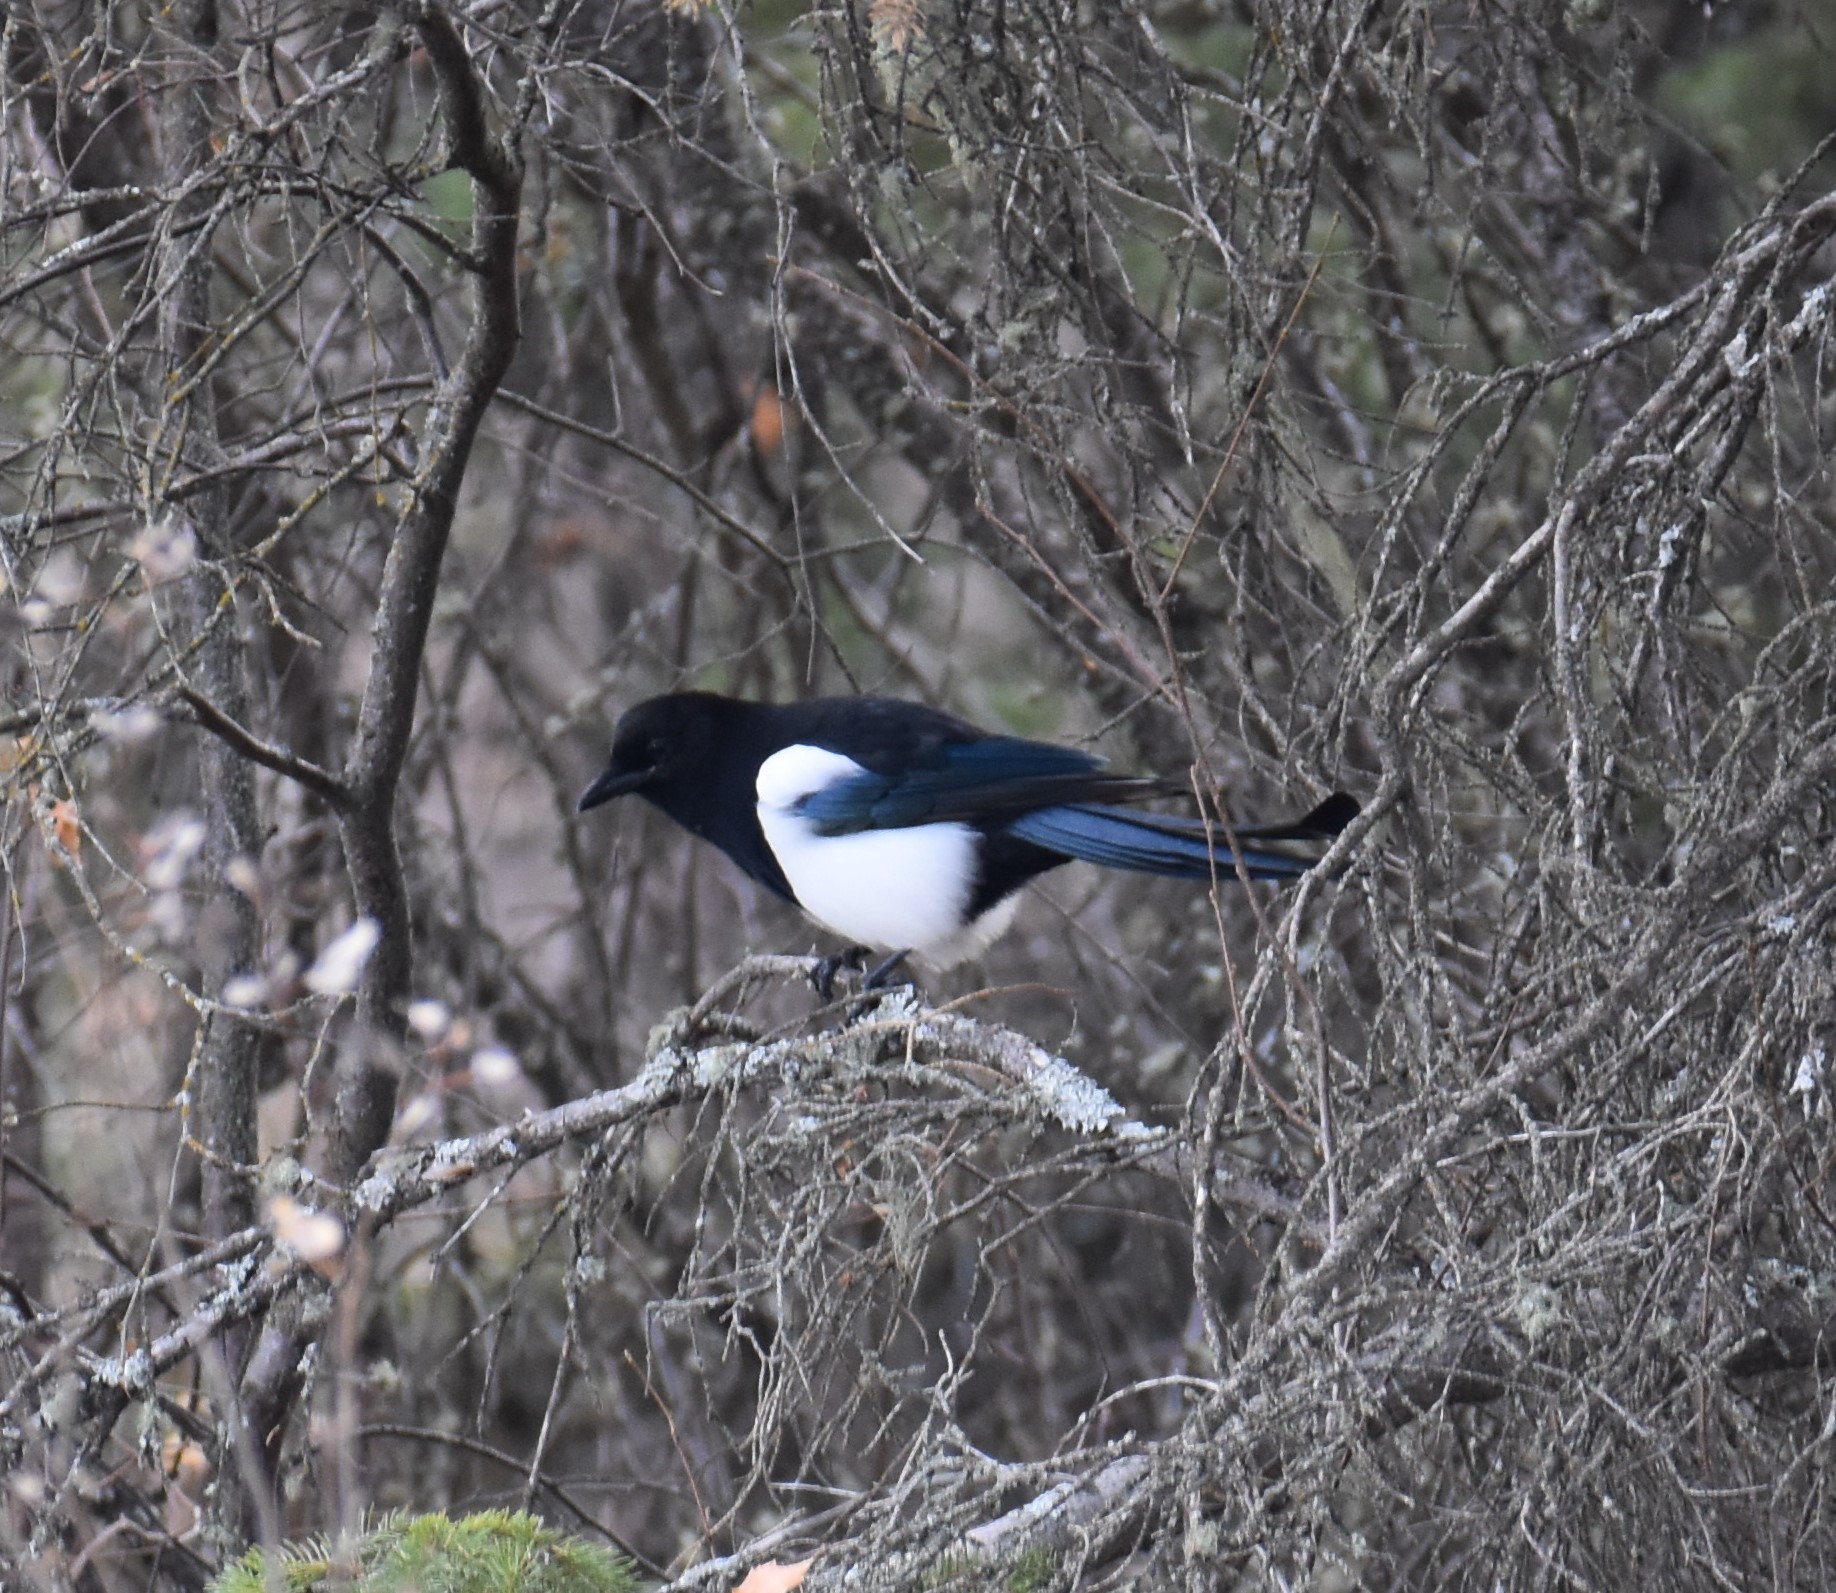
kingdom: Animalia
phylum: Chordata
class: Aves
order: Passeriformes
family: Corvidae
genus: Pica
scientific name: Pica hudsonia
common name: Black-billed magpie
